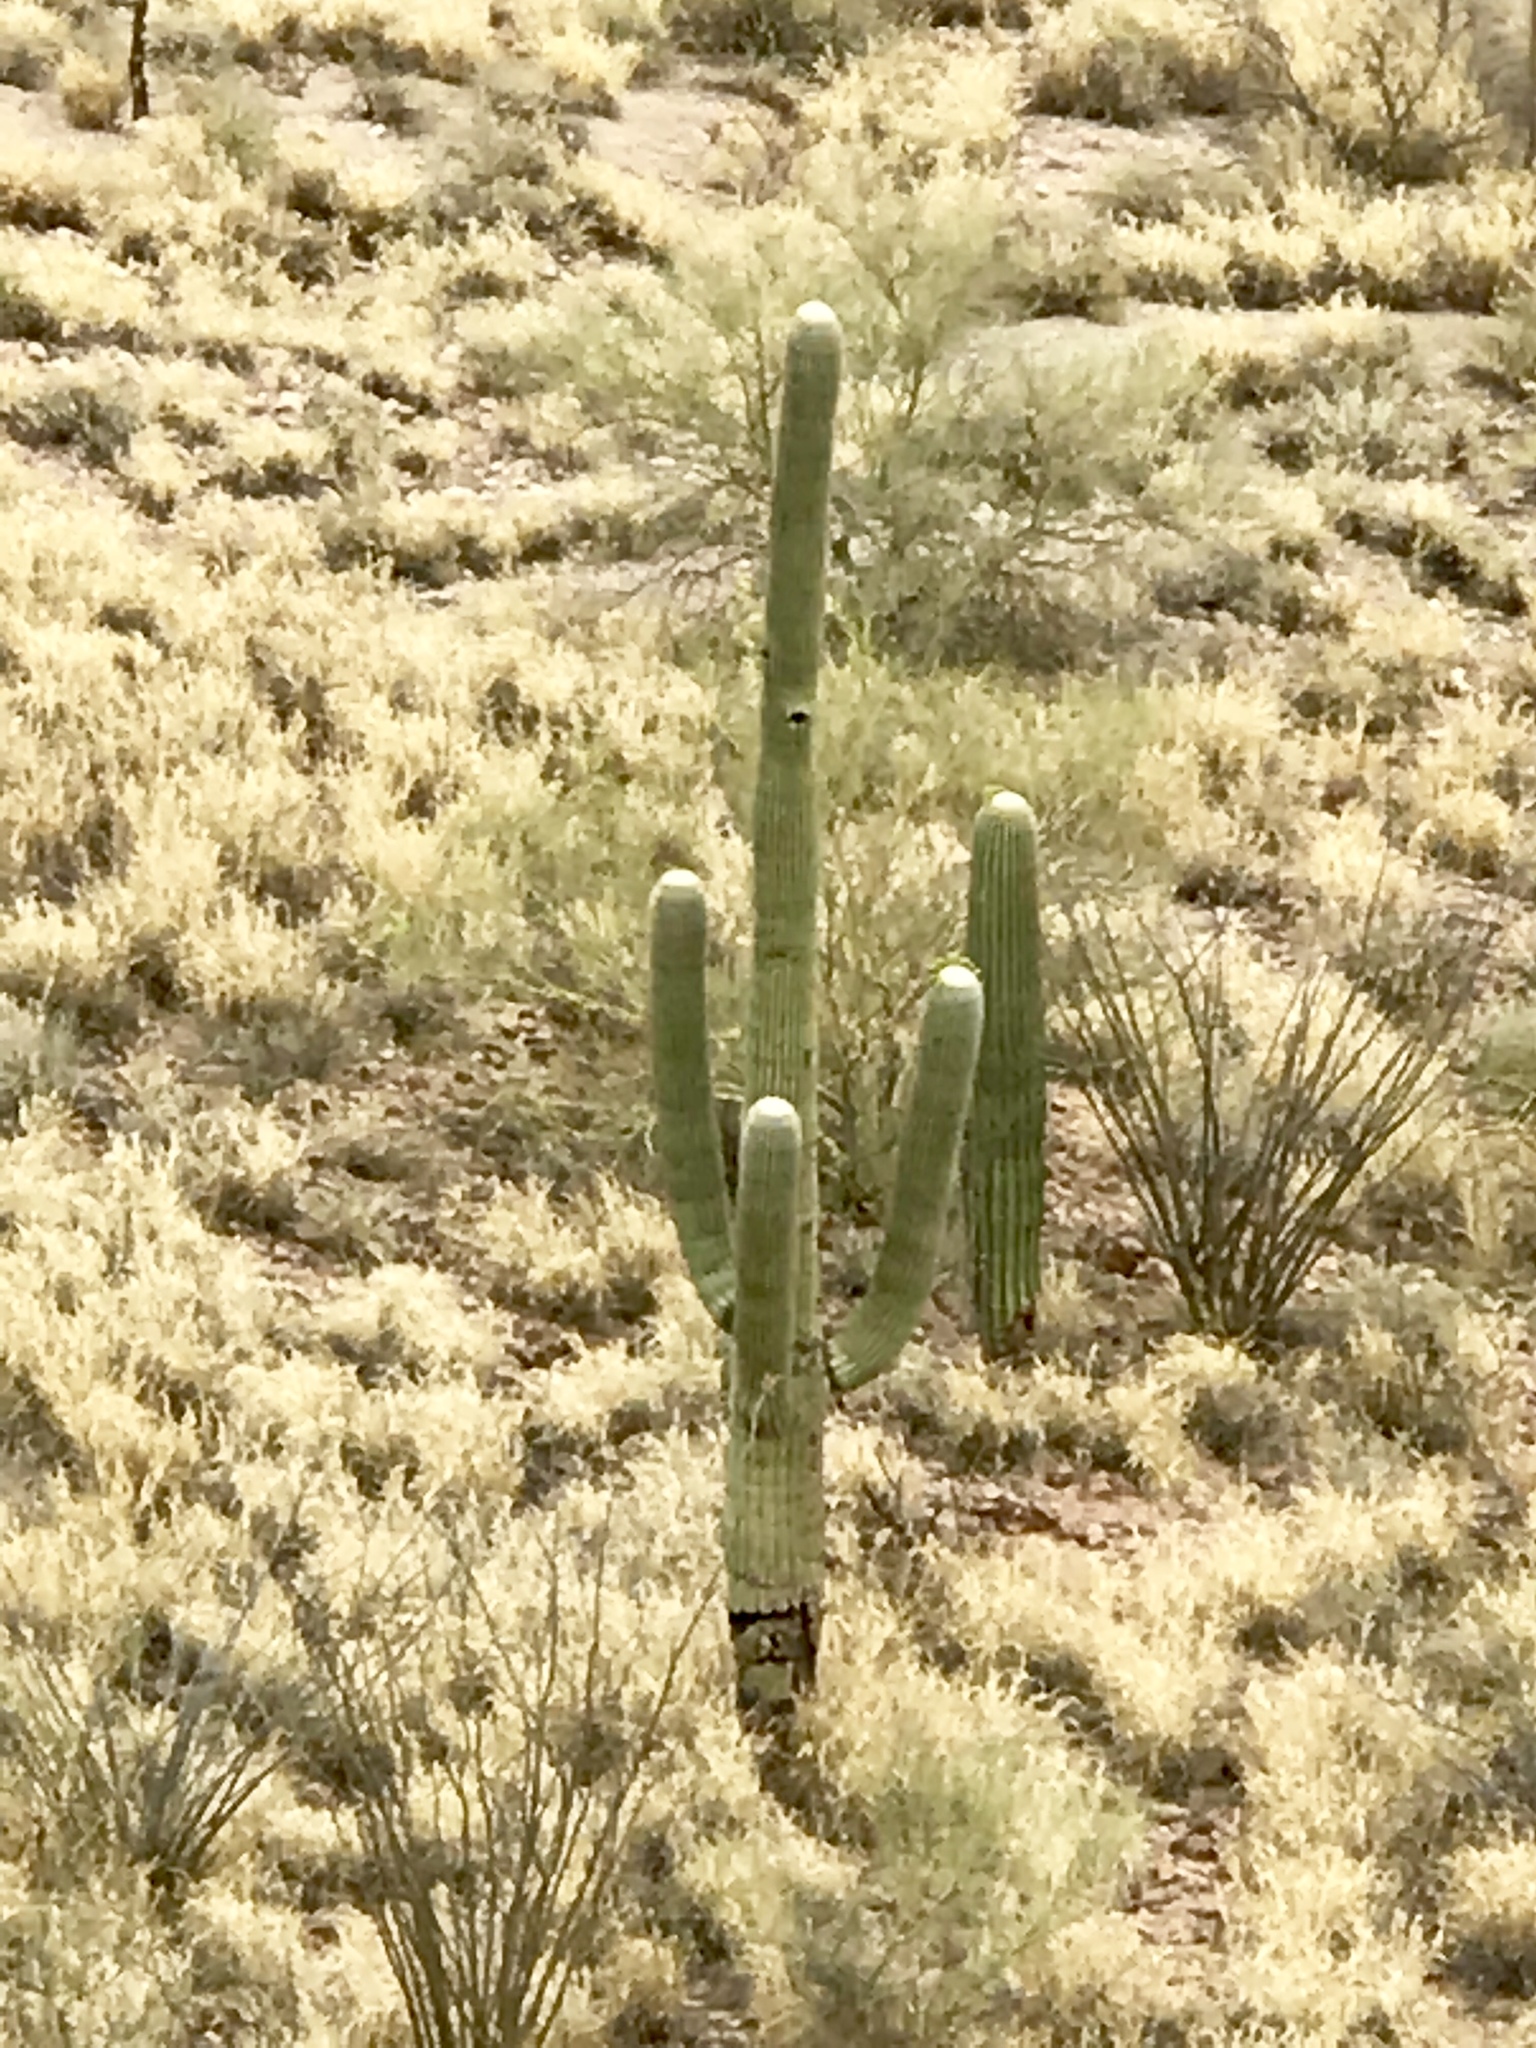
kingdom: Plantae
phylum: Tracheophyta
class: Magnoliopsida
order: Caryophyllales
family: Cactaceae
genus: Carnegiea
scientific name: Carnegiea gigantea
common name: Saguaro
